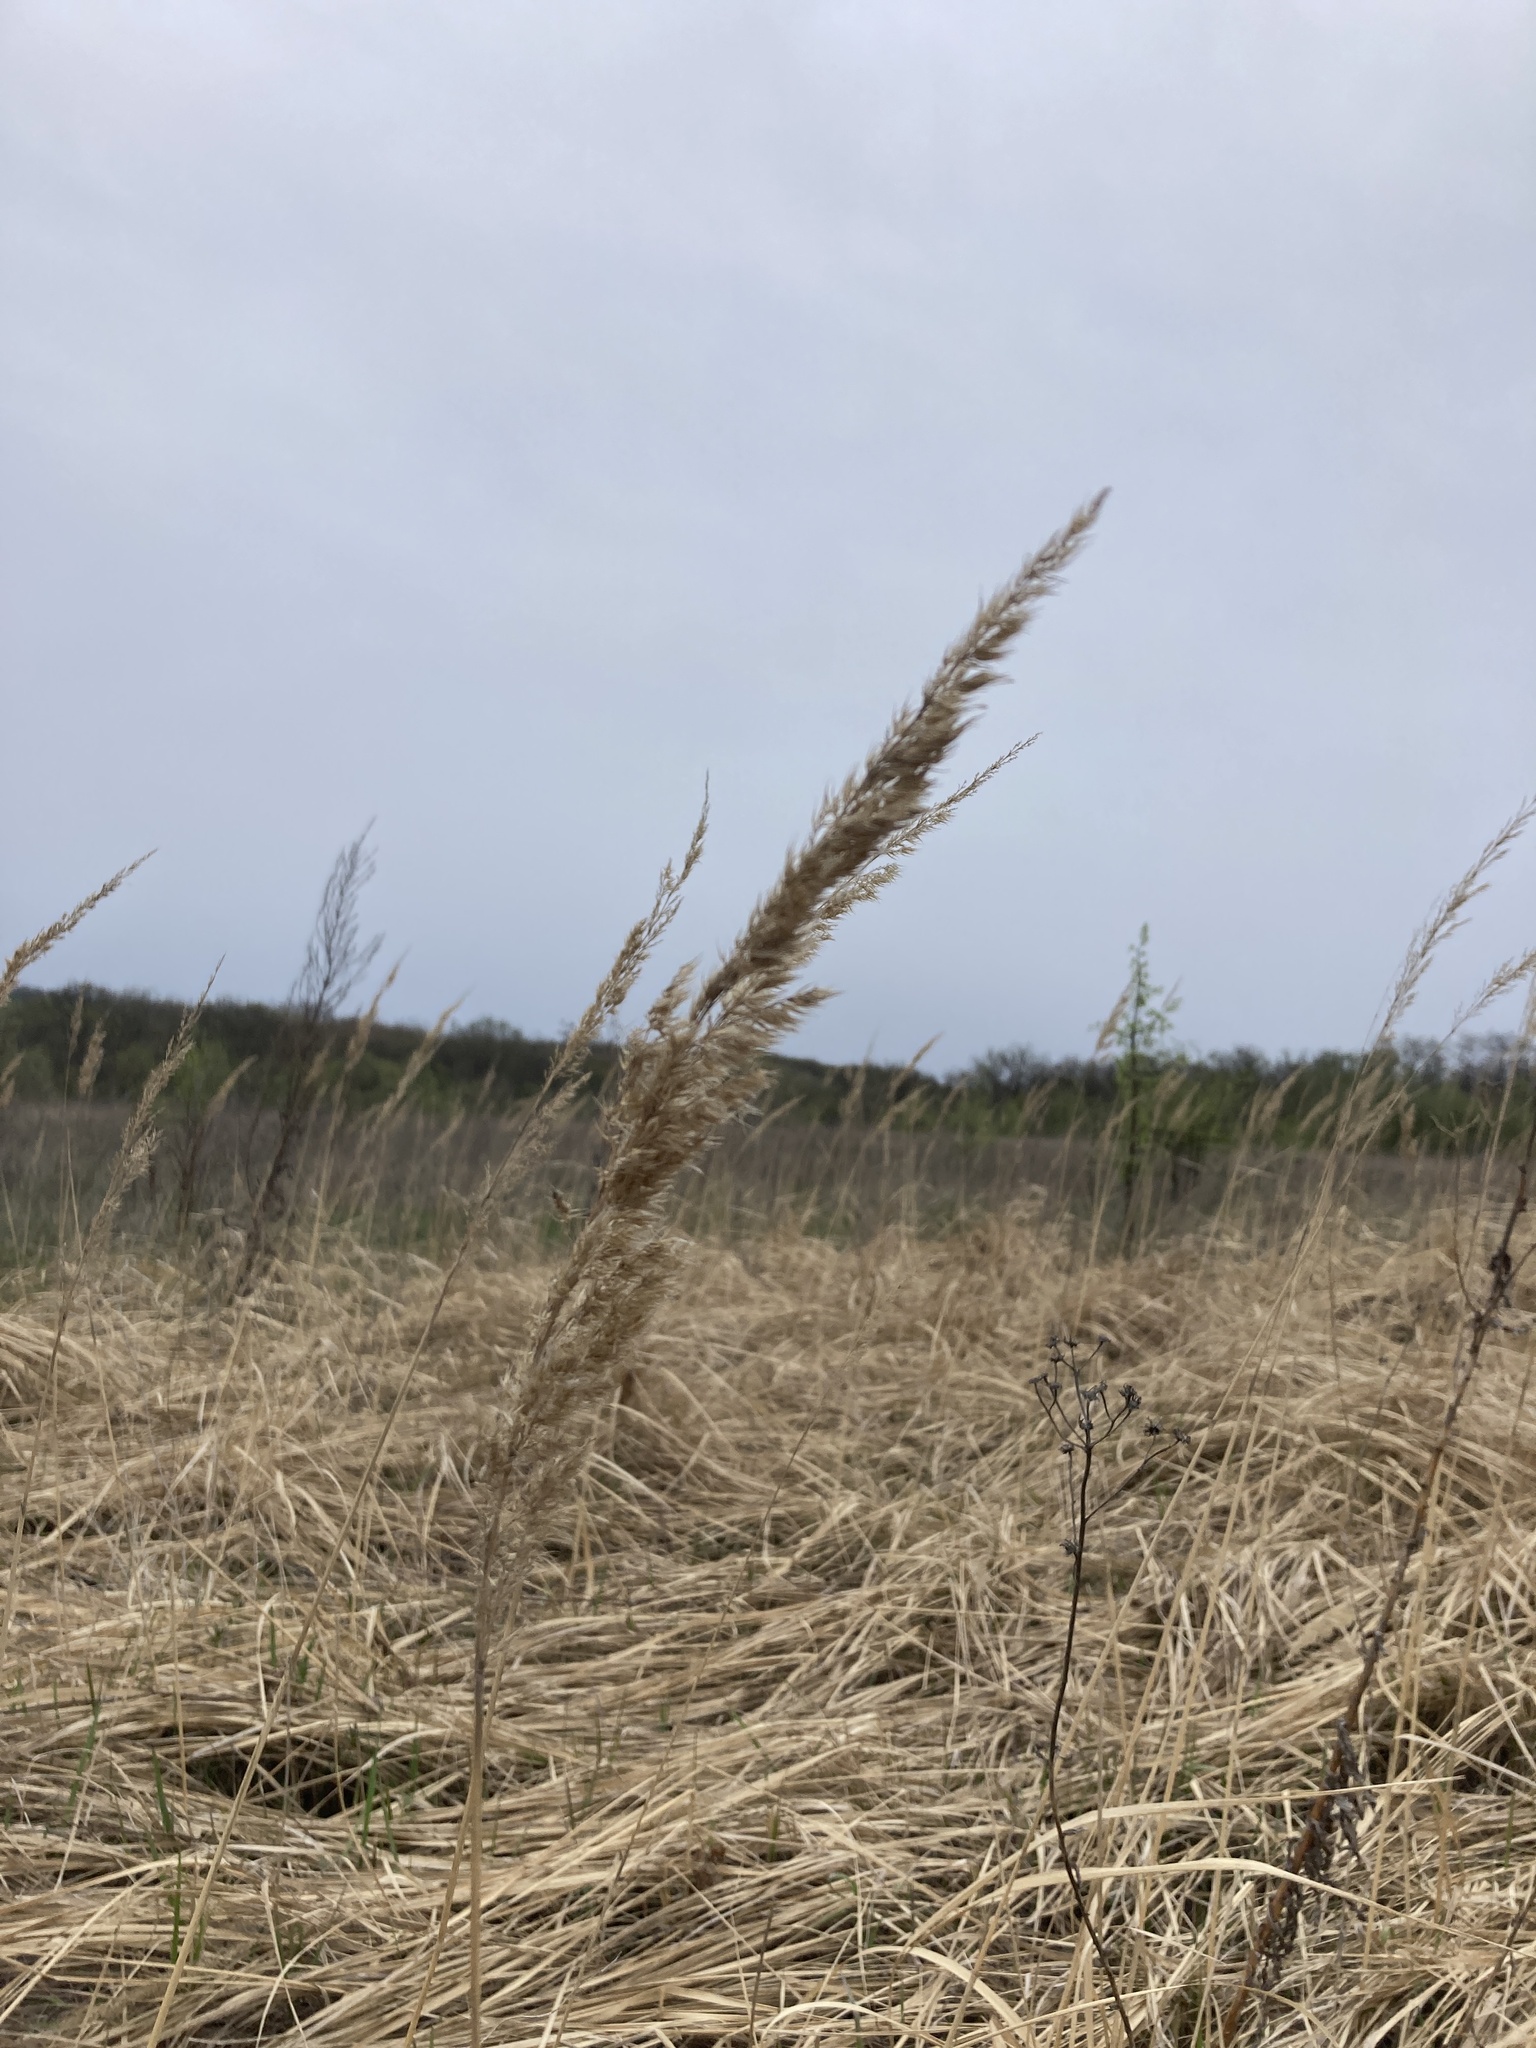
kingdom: Plantae
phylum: Tracheophyta
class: Liliopsida
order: Poales
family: Poaceae
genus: Calamagrostis
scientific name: Calamagrostis epigejos
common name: Wood small-reed
